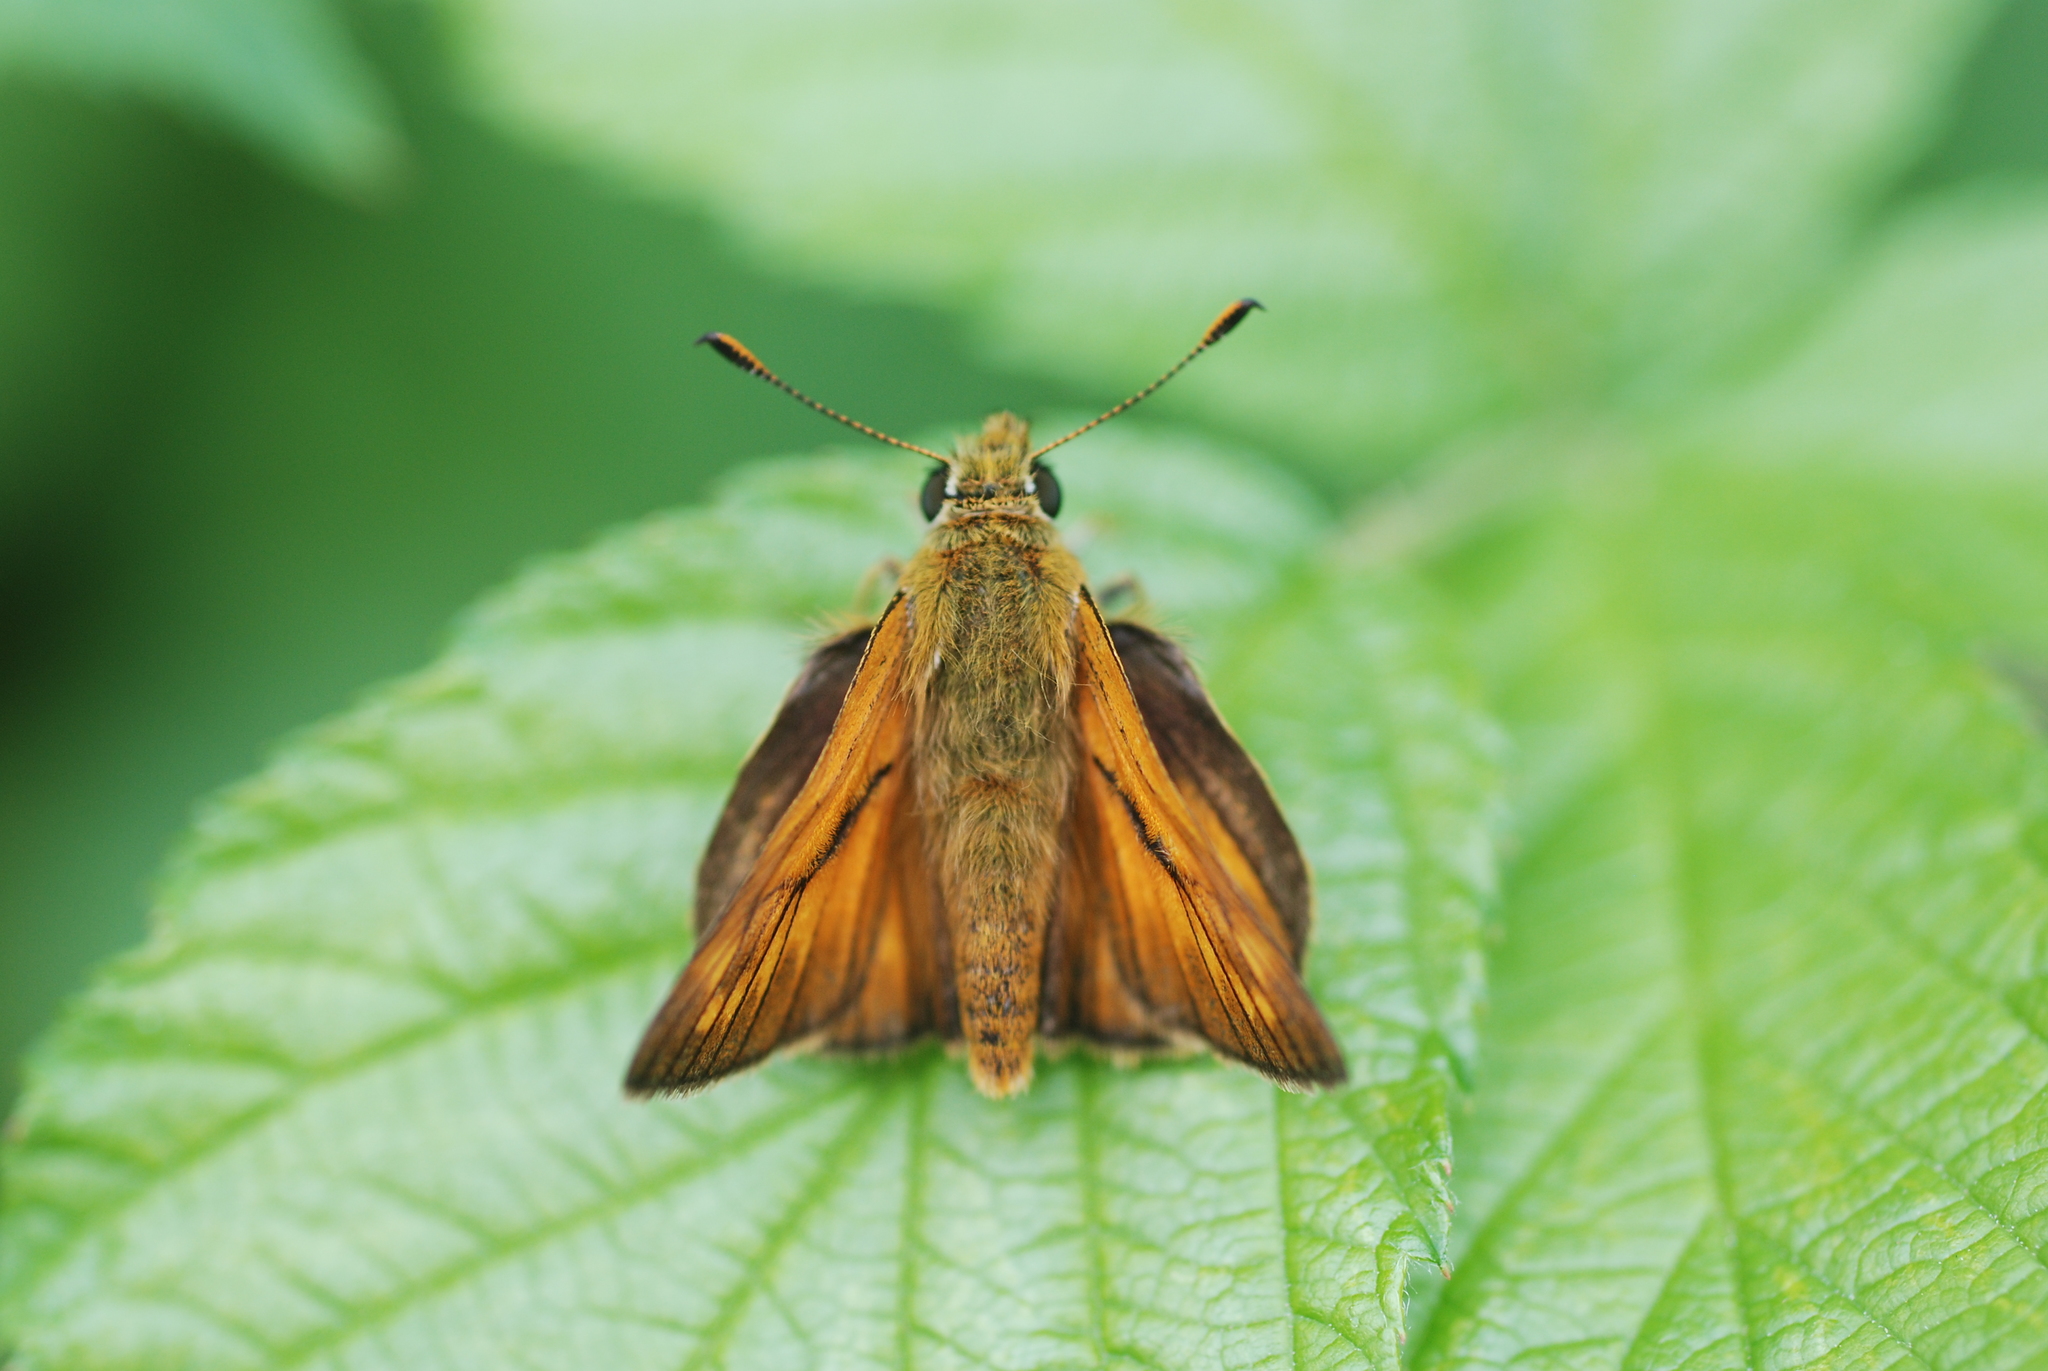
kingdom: Animalia
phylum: Arthropoda
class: Insecta
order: Lepidoptera
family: Hesperiidae
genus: Ochlodes
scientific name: Ochlodes venata
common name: Large skipper
